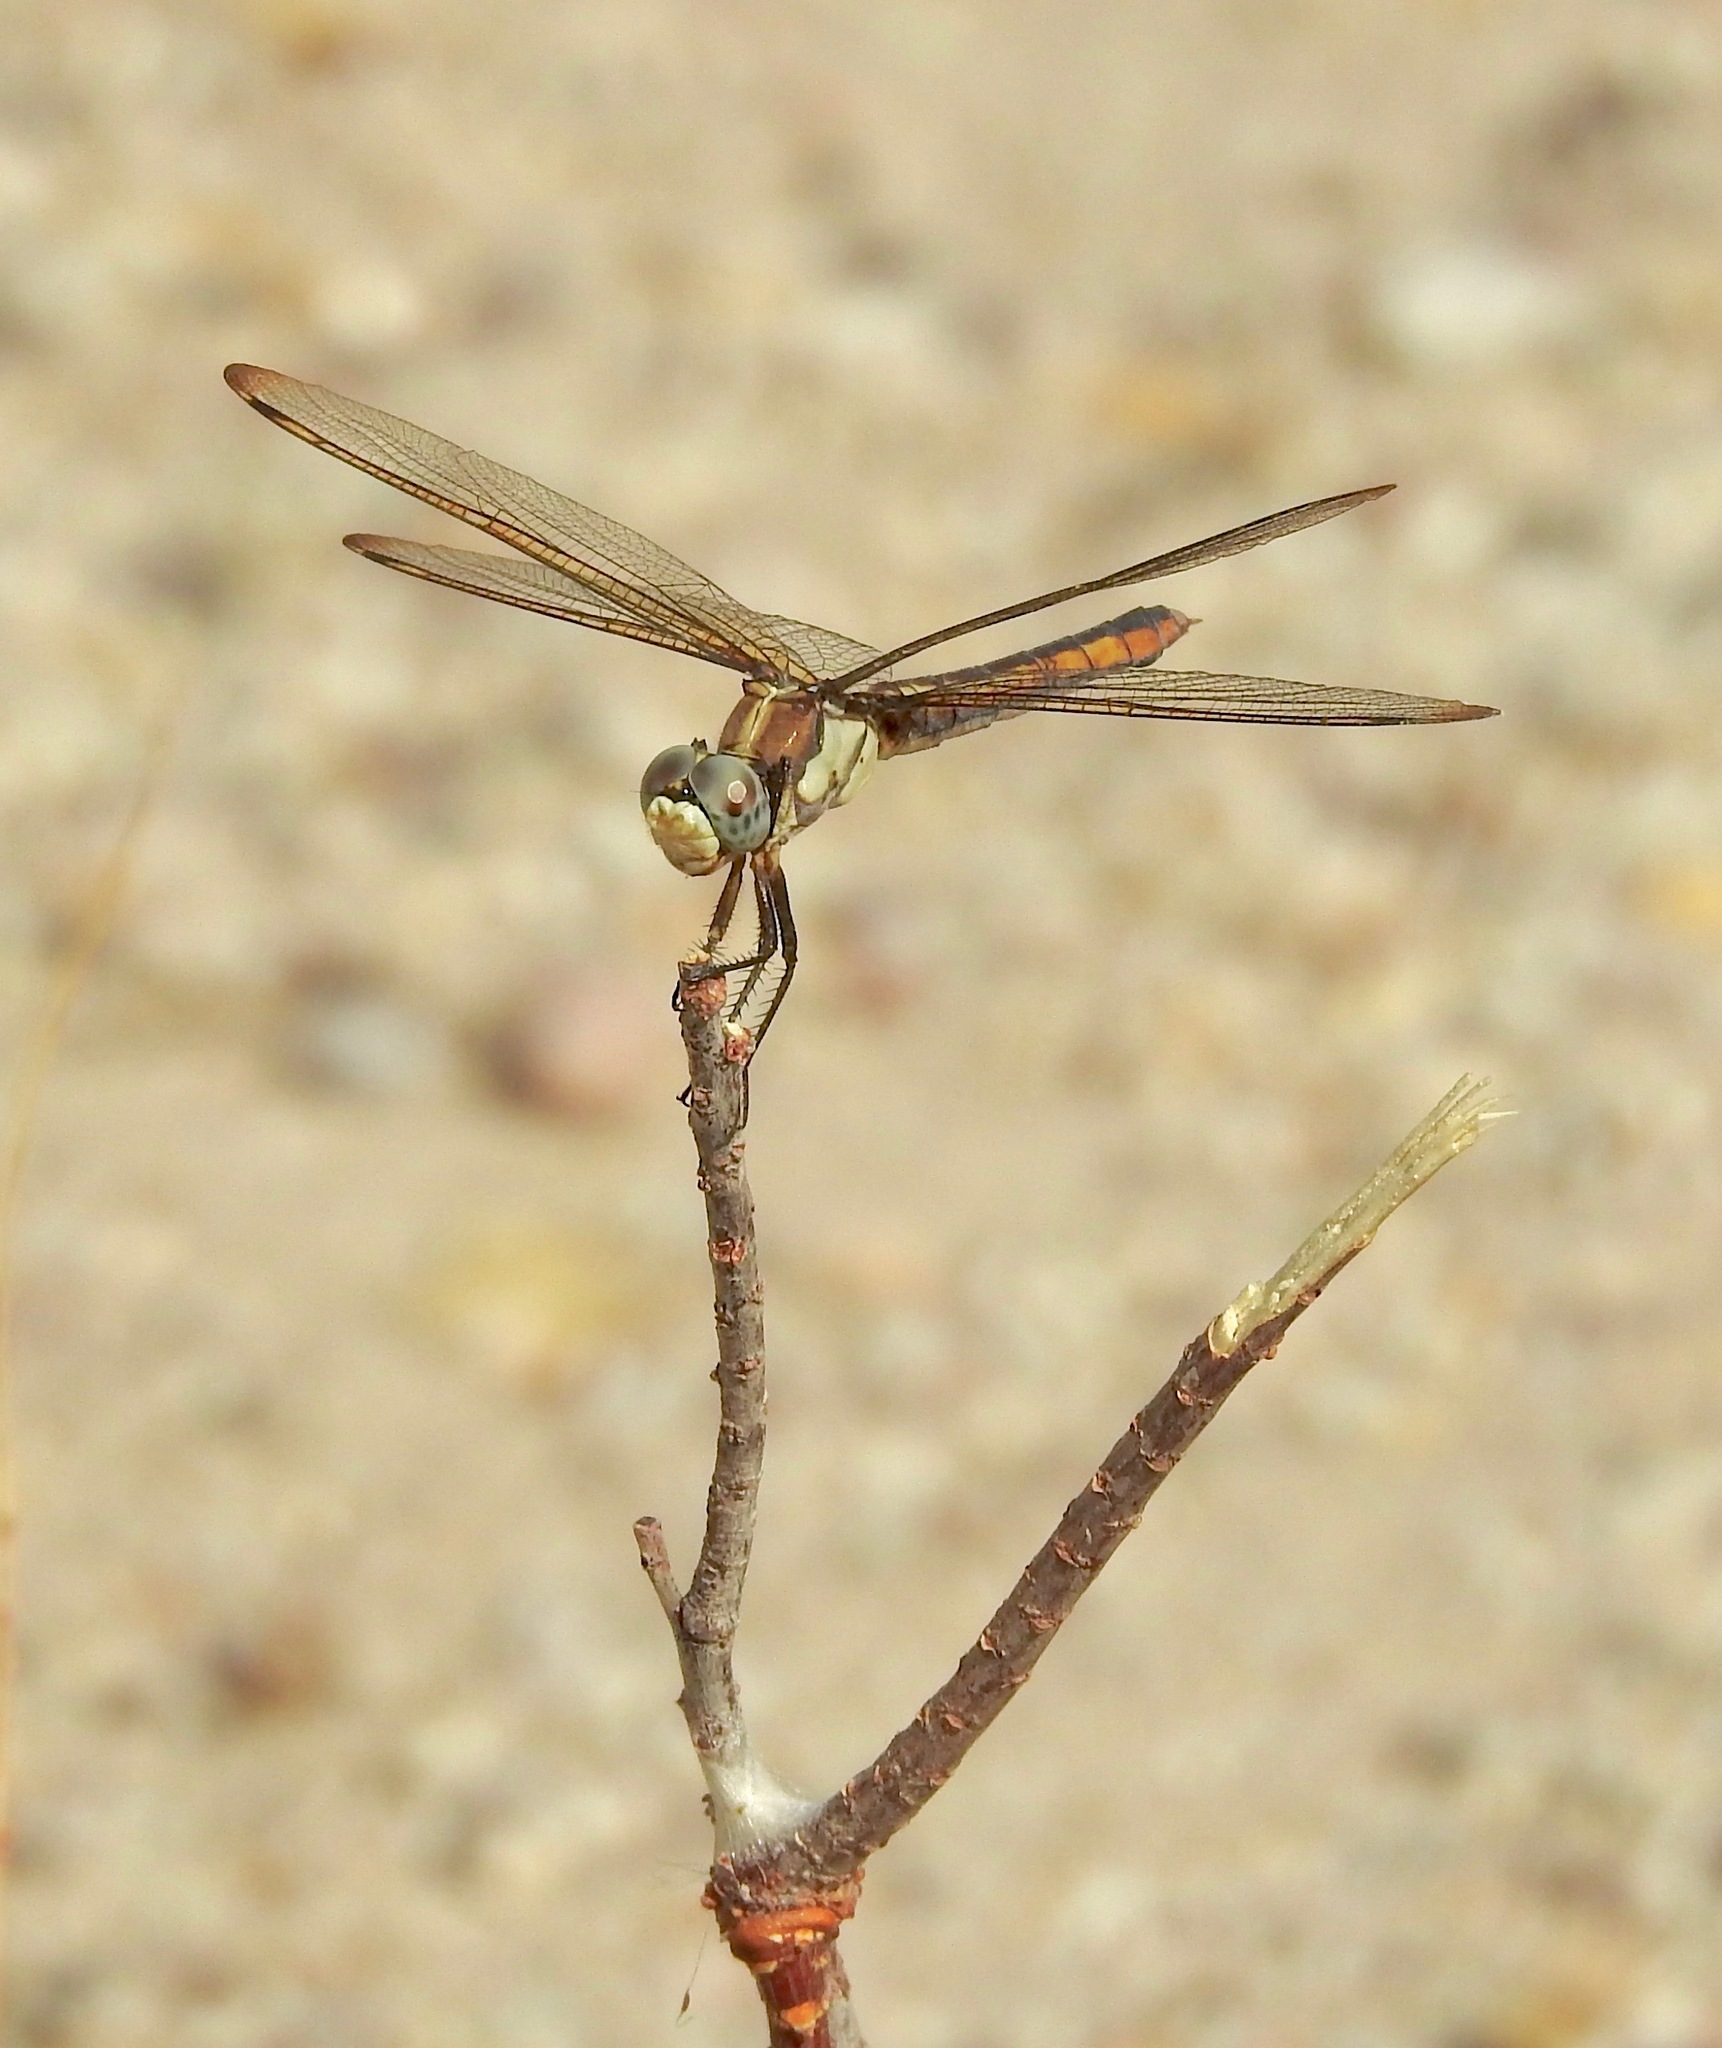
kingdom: Animalia
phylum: Arthropoda
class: Insecta
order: Odonata
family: Libellulidae
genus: Libellula
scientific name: Libellula comanche
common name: Comanche skimmer
